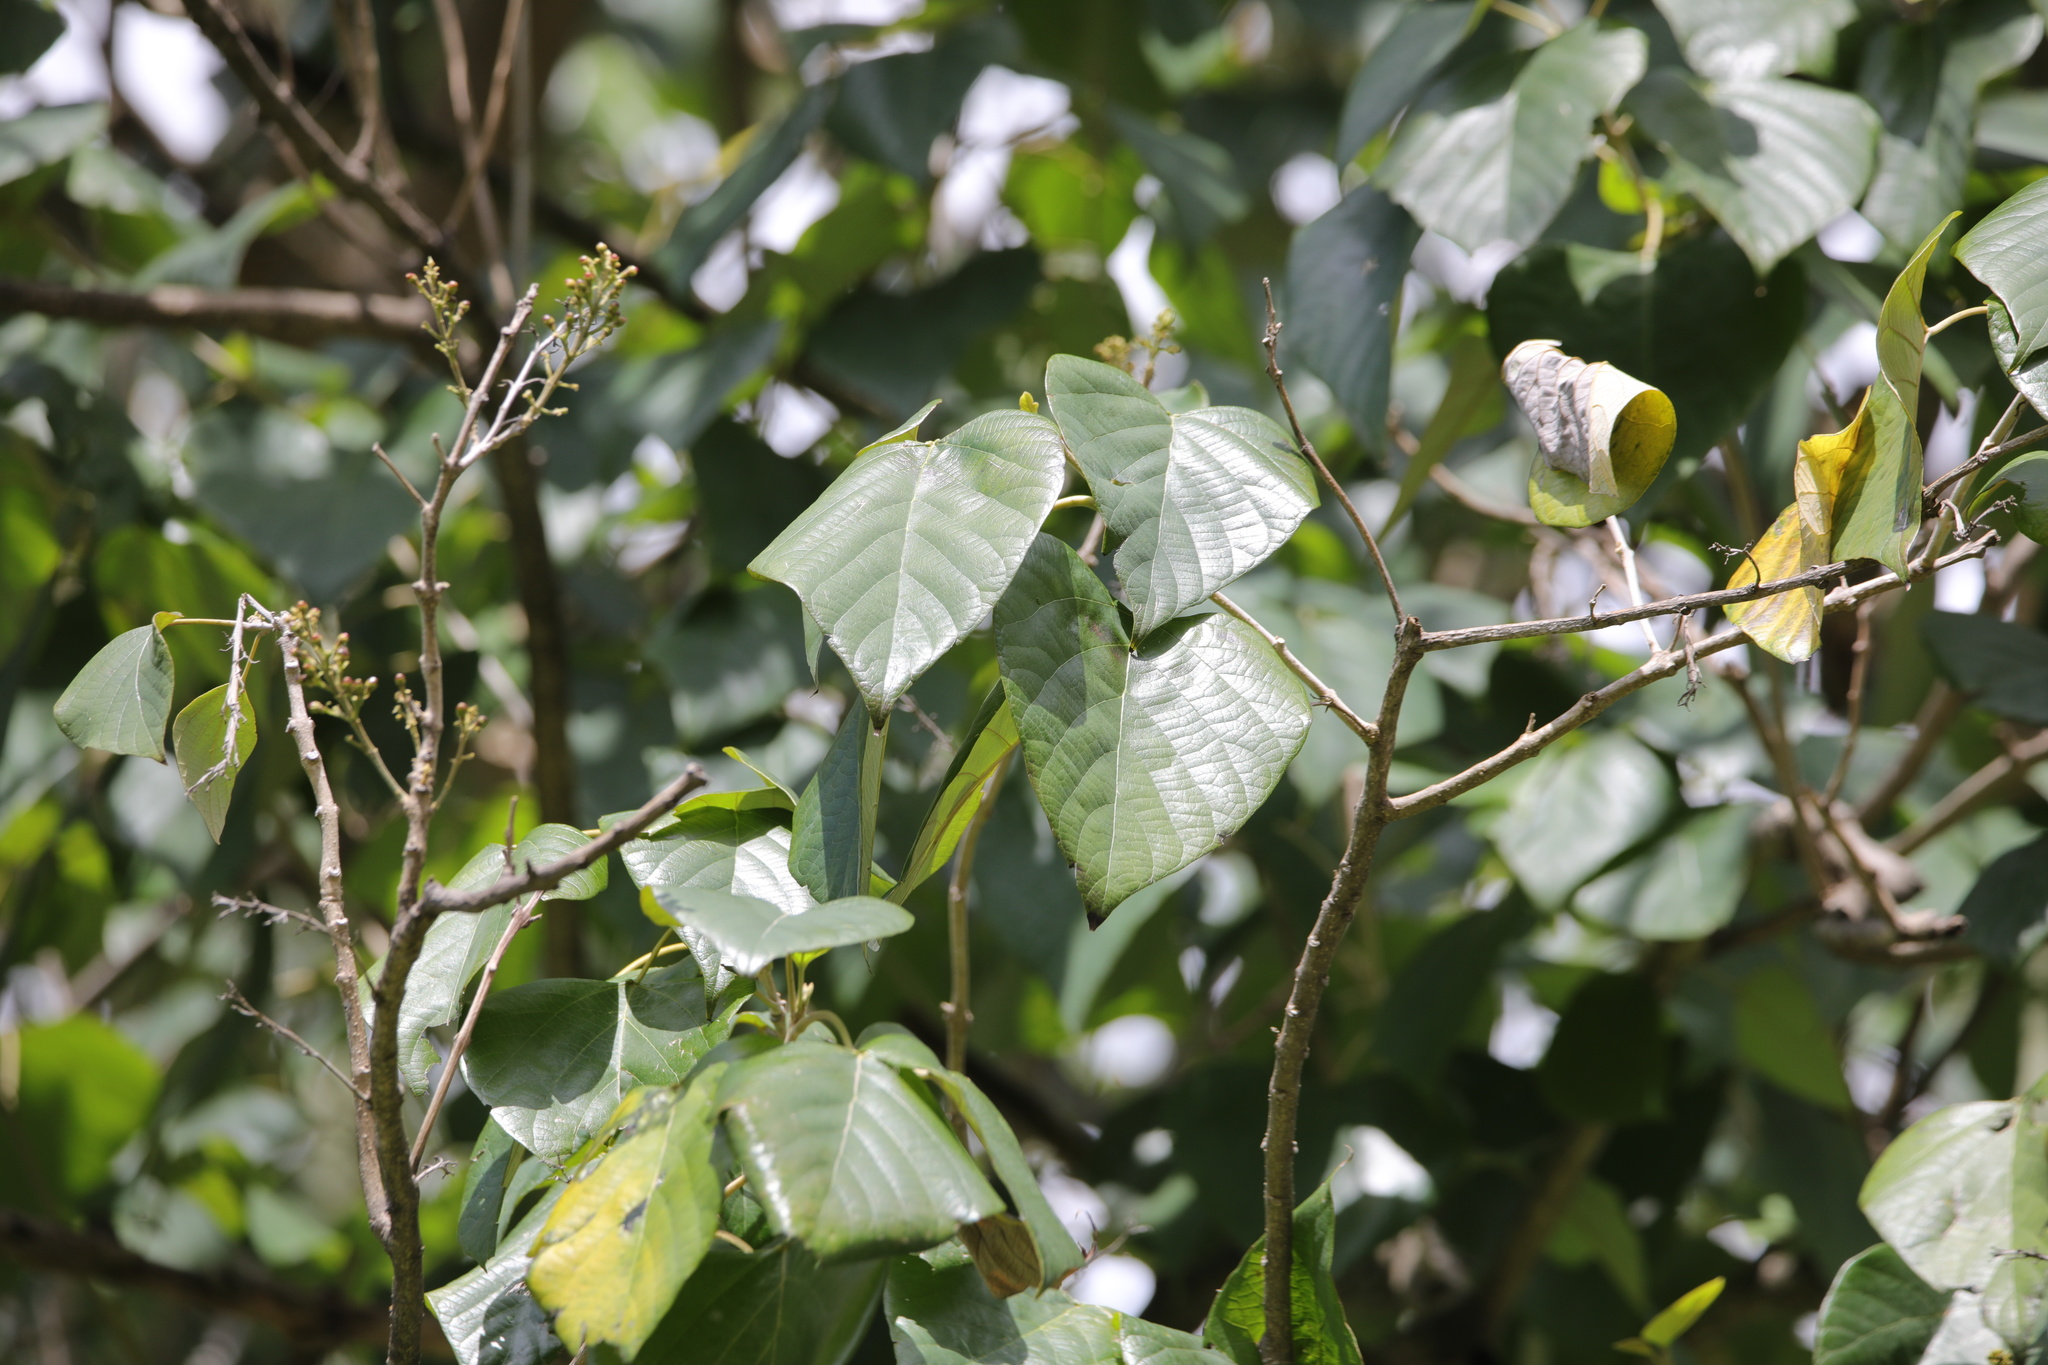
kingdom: Plantae
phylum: Tracheophyta
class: Magnoliopsida
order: Lamiales
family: Lamiaceae
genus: Gmelina
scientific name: Gmelina arborea
